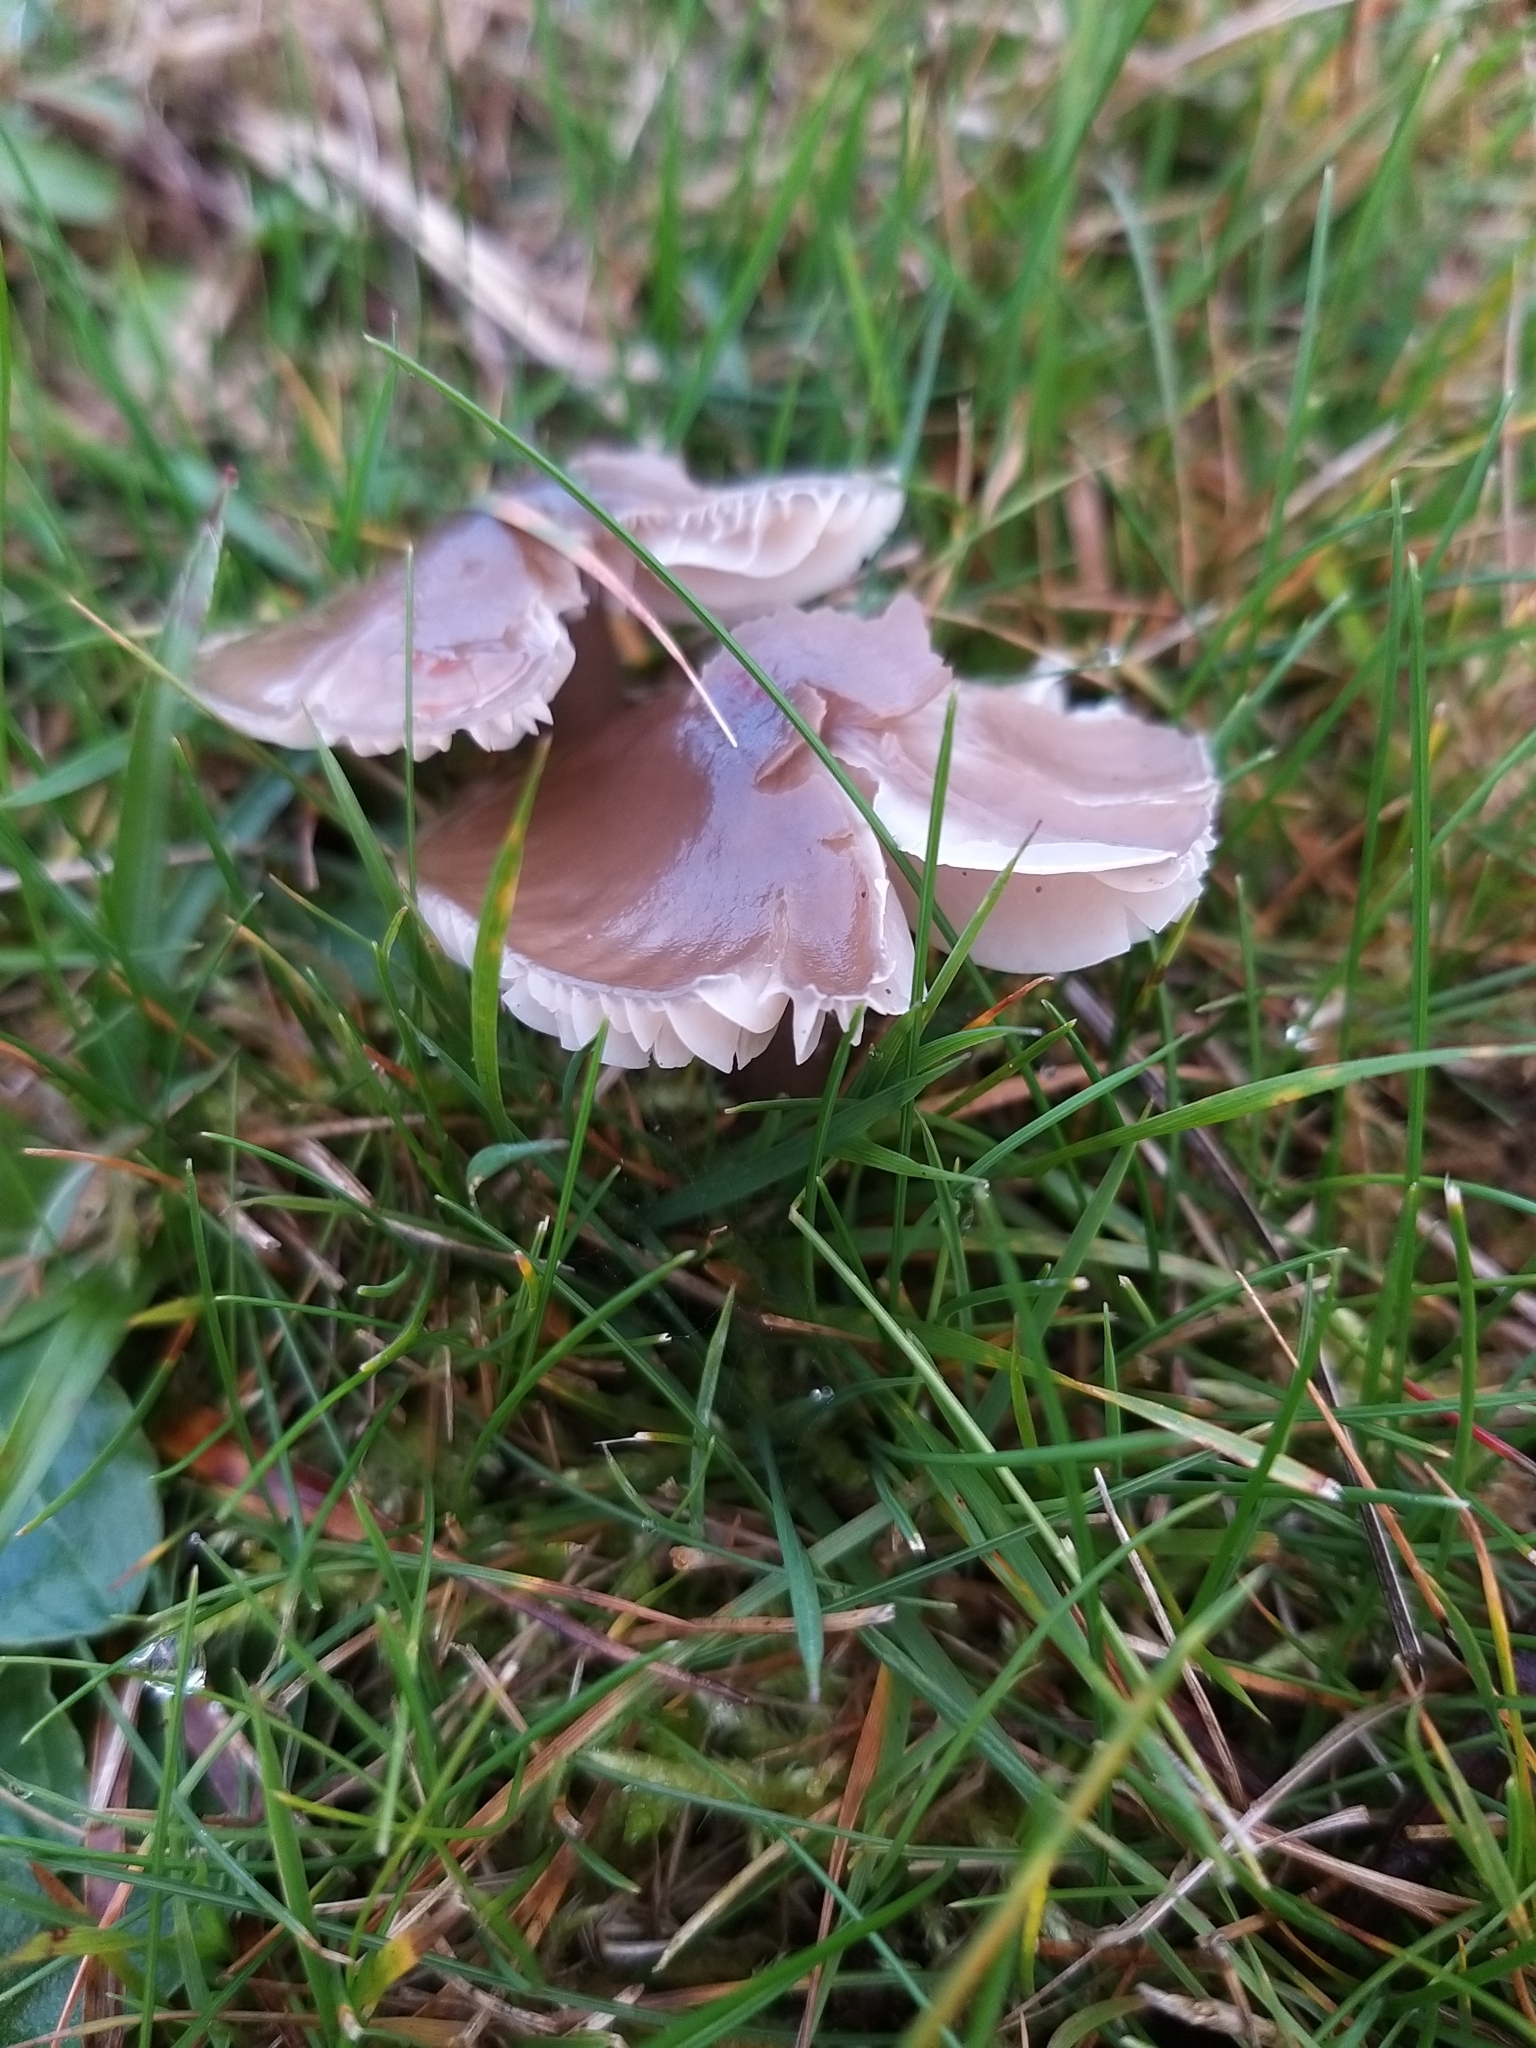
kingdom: Fungi
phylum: Basidiomycota
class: Agaricomycetes
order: Agaricales
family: Hygrophoraceae
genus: Gliophorus
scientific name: Gliophorus irrigatus
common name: Slimy waxcap
